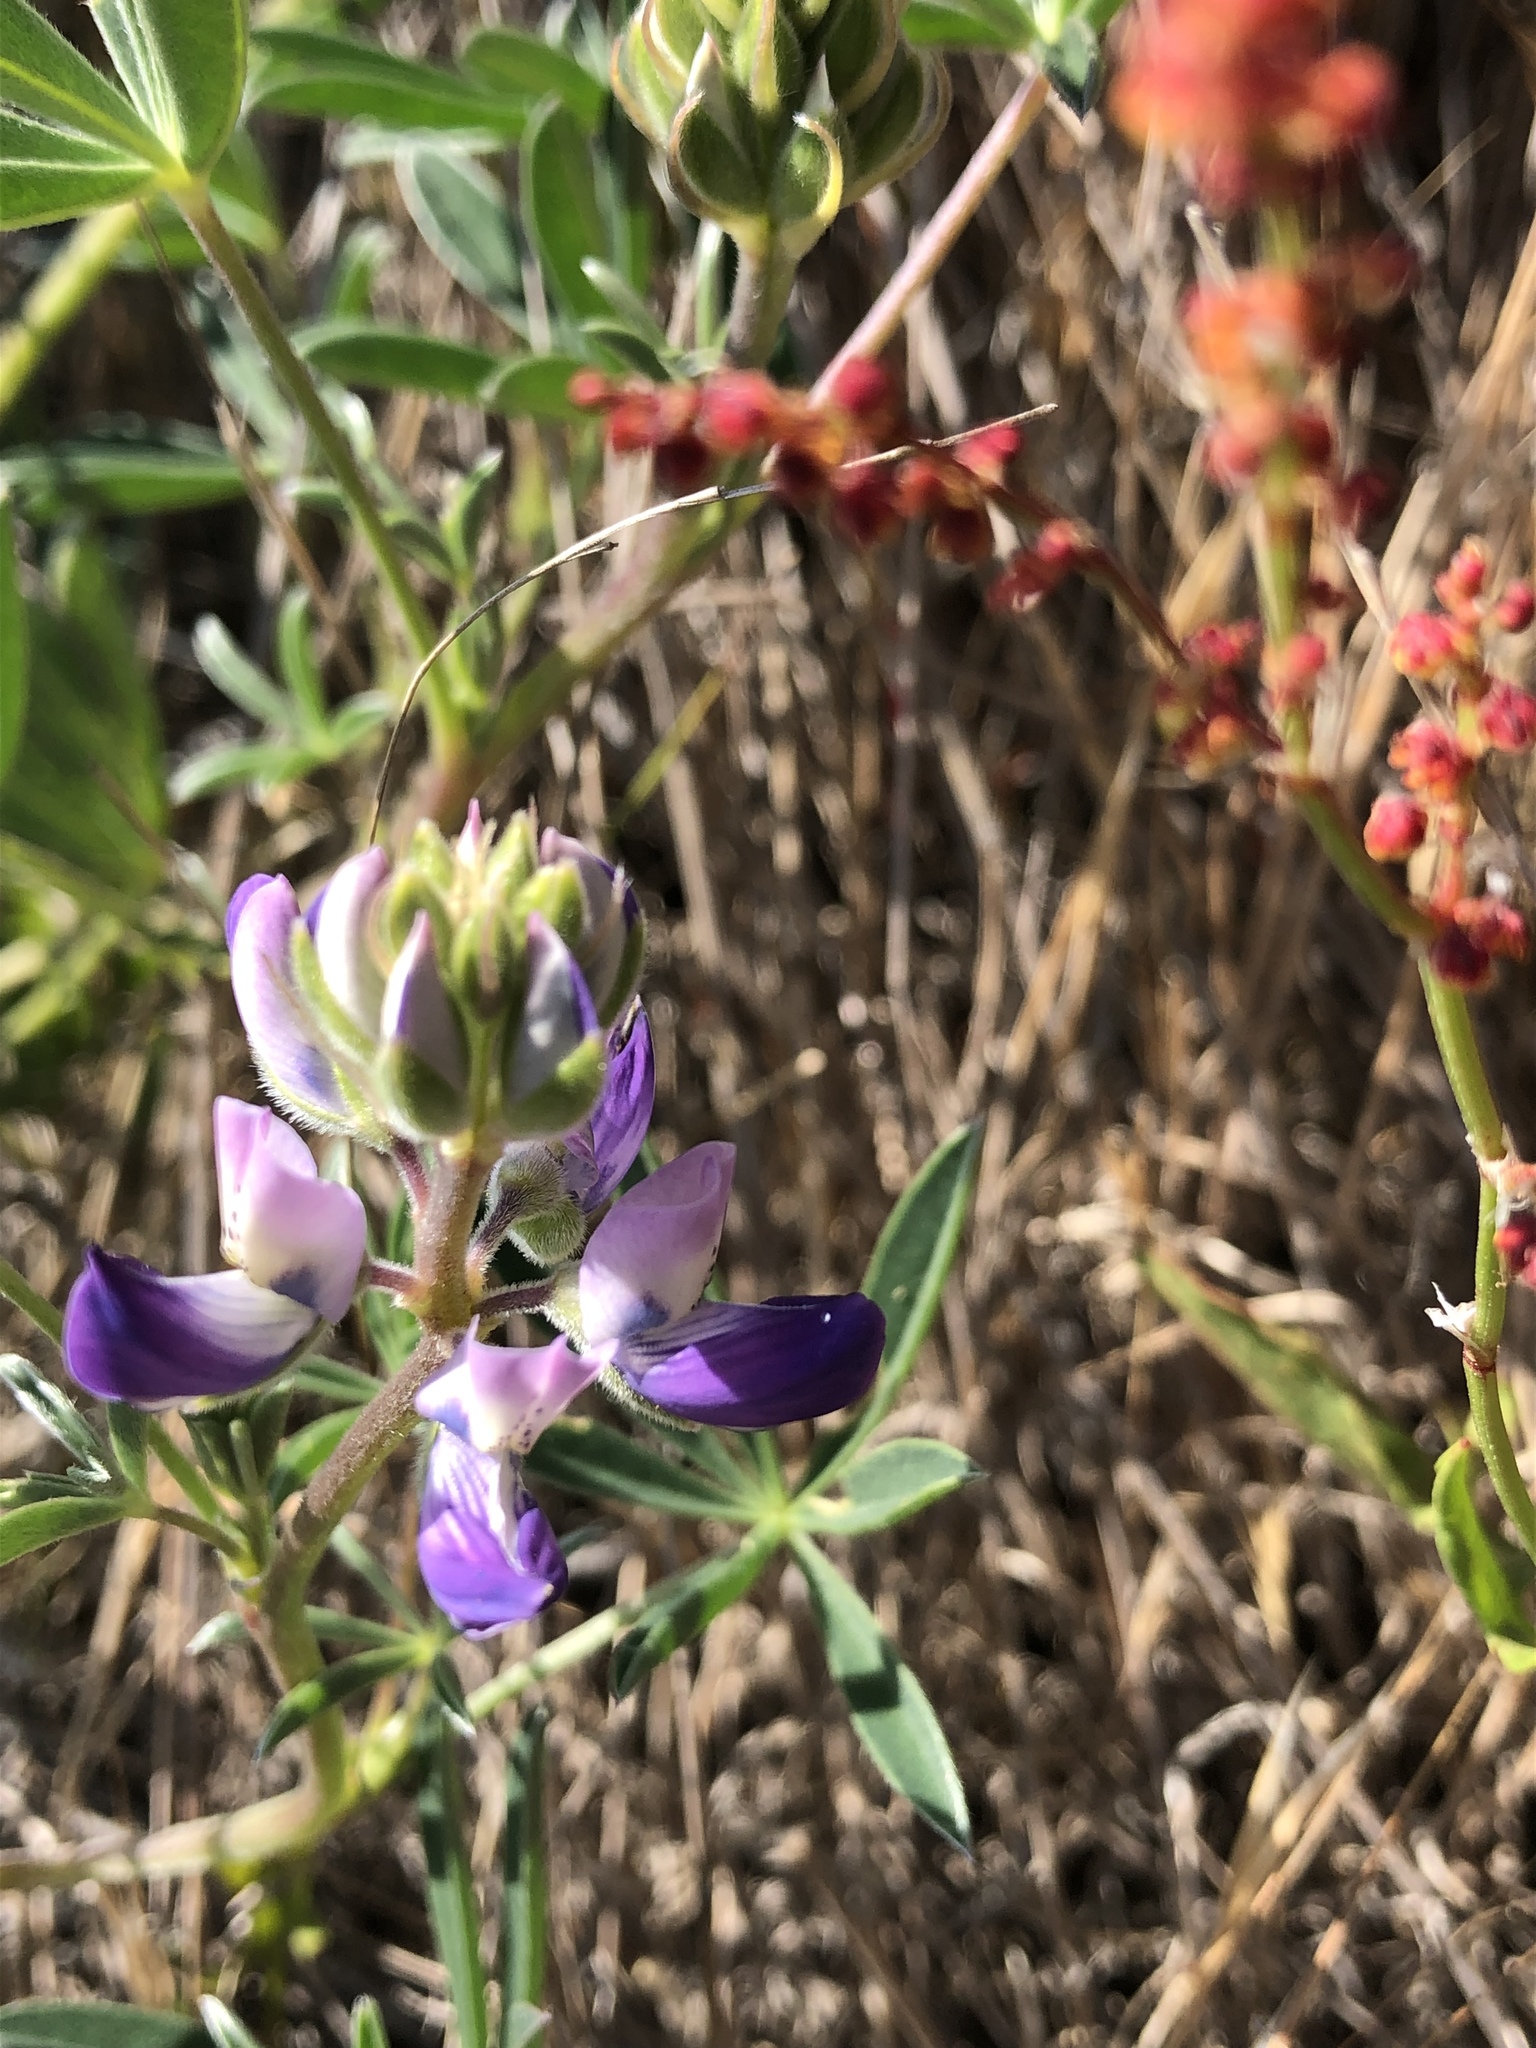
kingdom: Plantae
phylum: Tracheophyta
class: Magnoliopsida
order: Fabales
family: Fabaceae
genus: Lupinus
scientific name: Lupinus littoralis
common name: Seashore lupine
